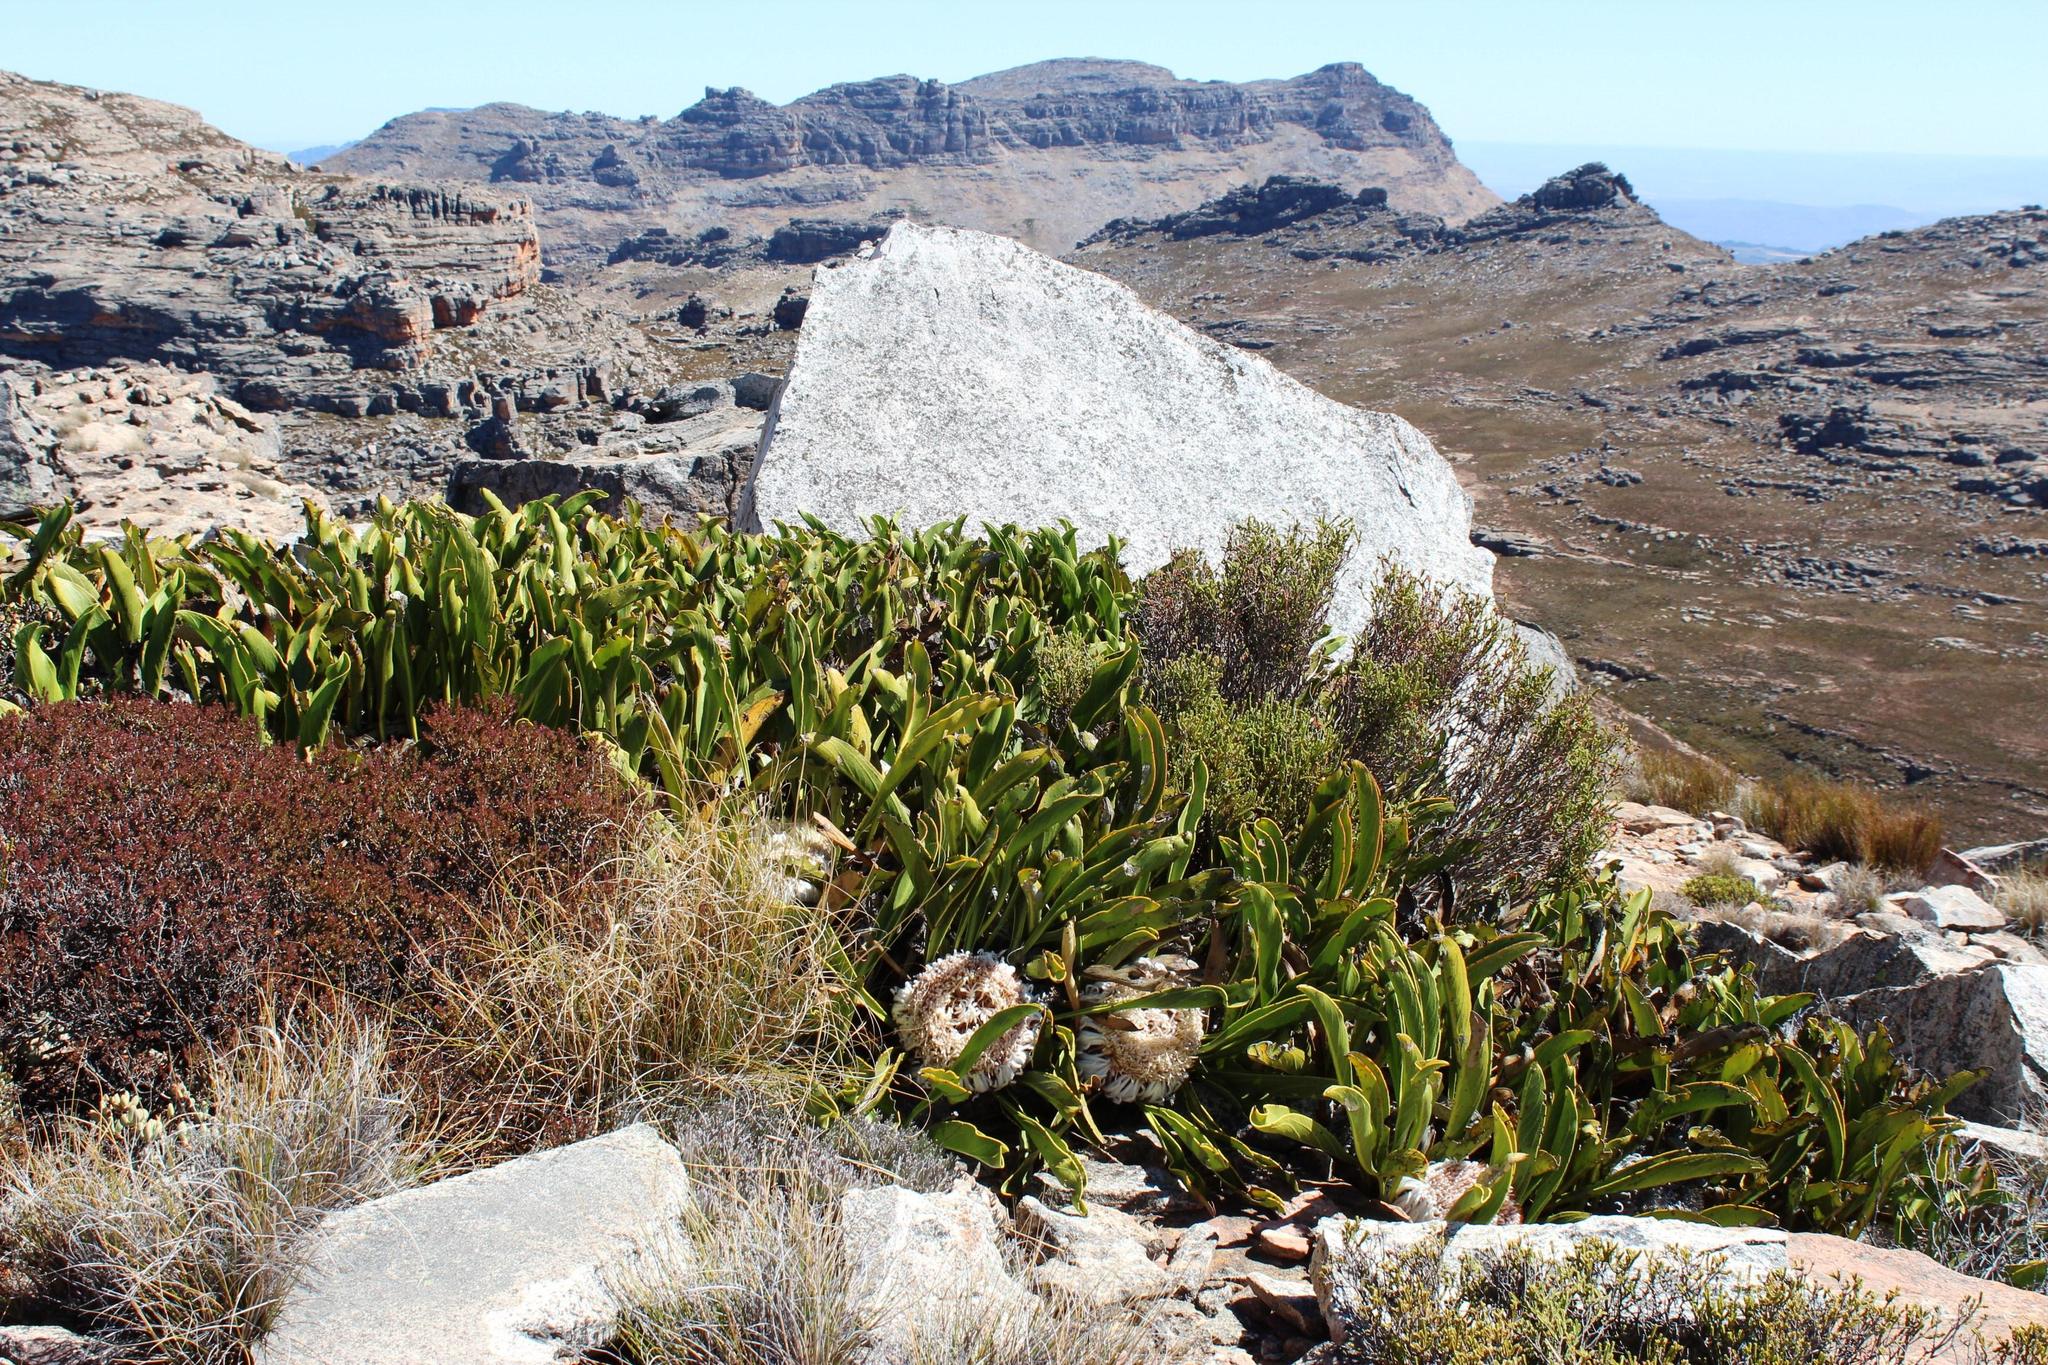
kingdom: Plantae
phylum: Tracheophyta
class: Magnoliopsida
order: Proteales
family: Proteaceae
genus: Protea
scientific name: Protea cryophila
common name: Snow protea
